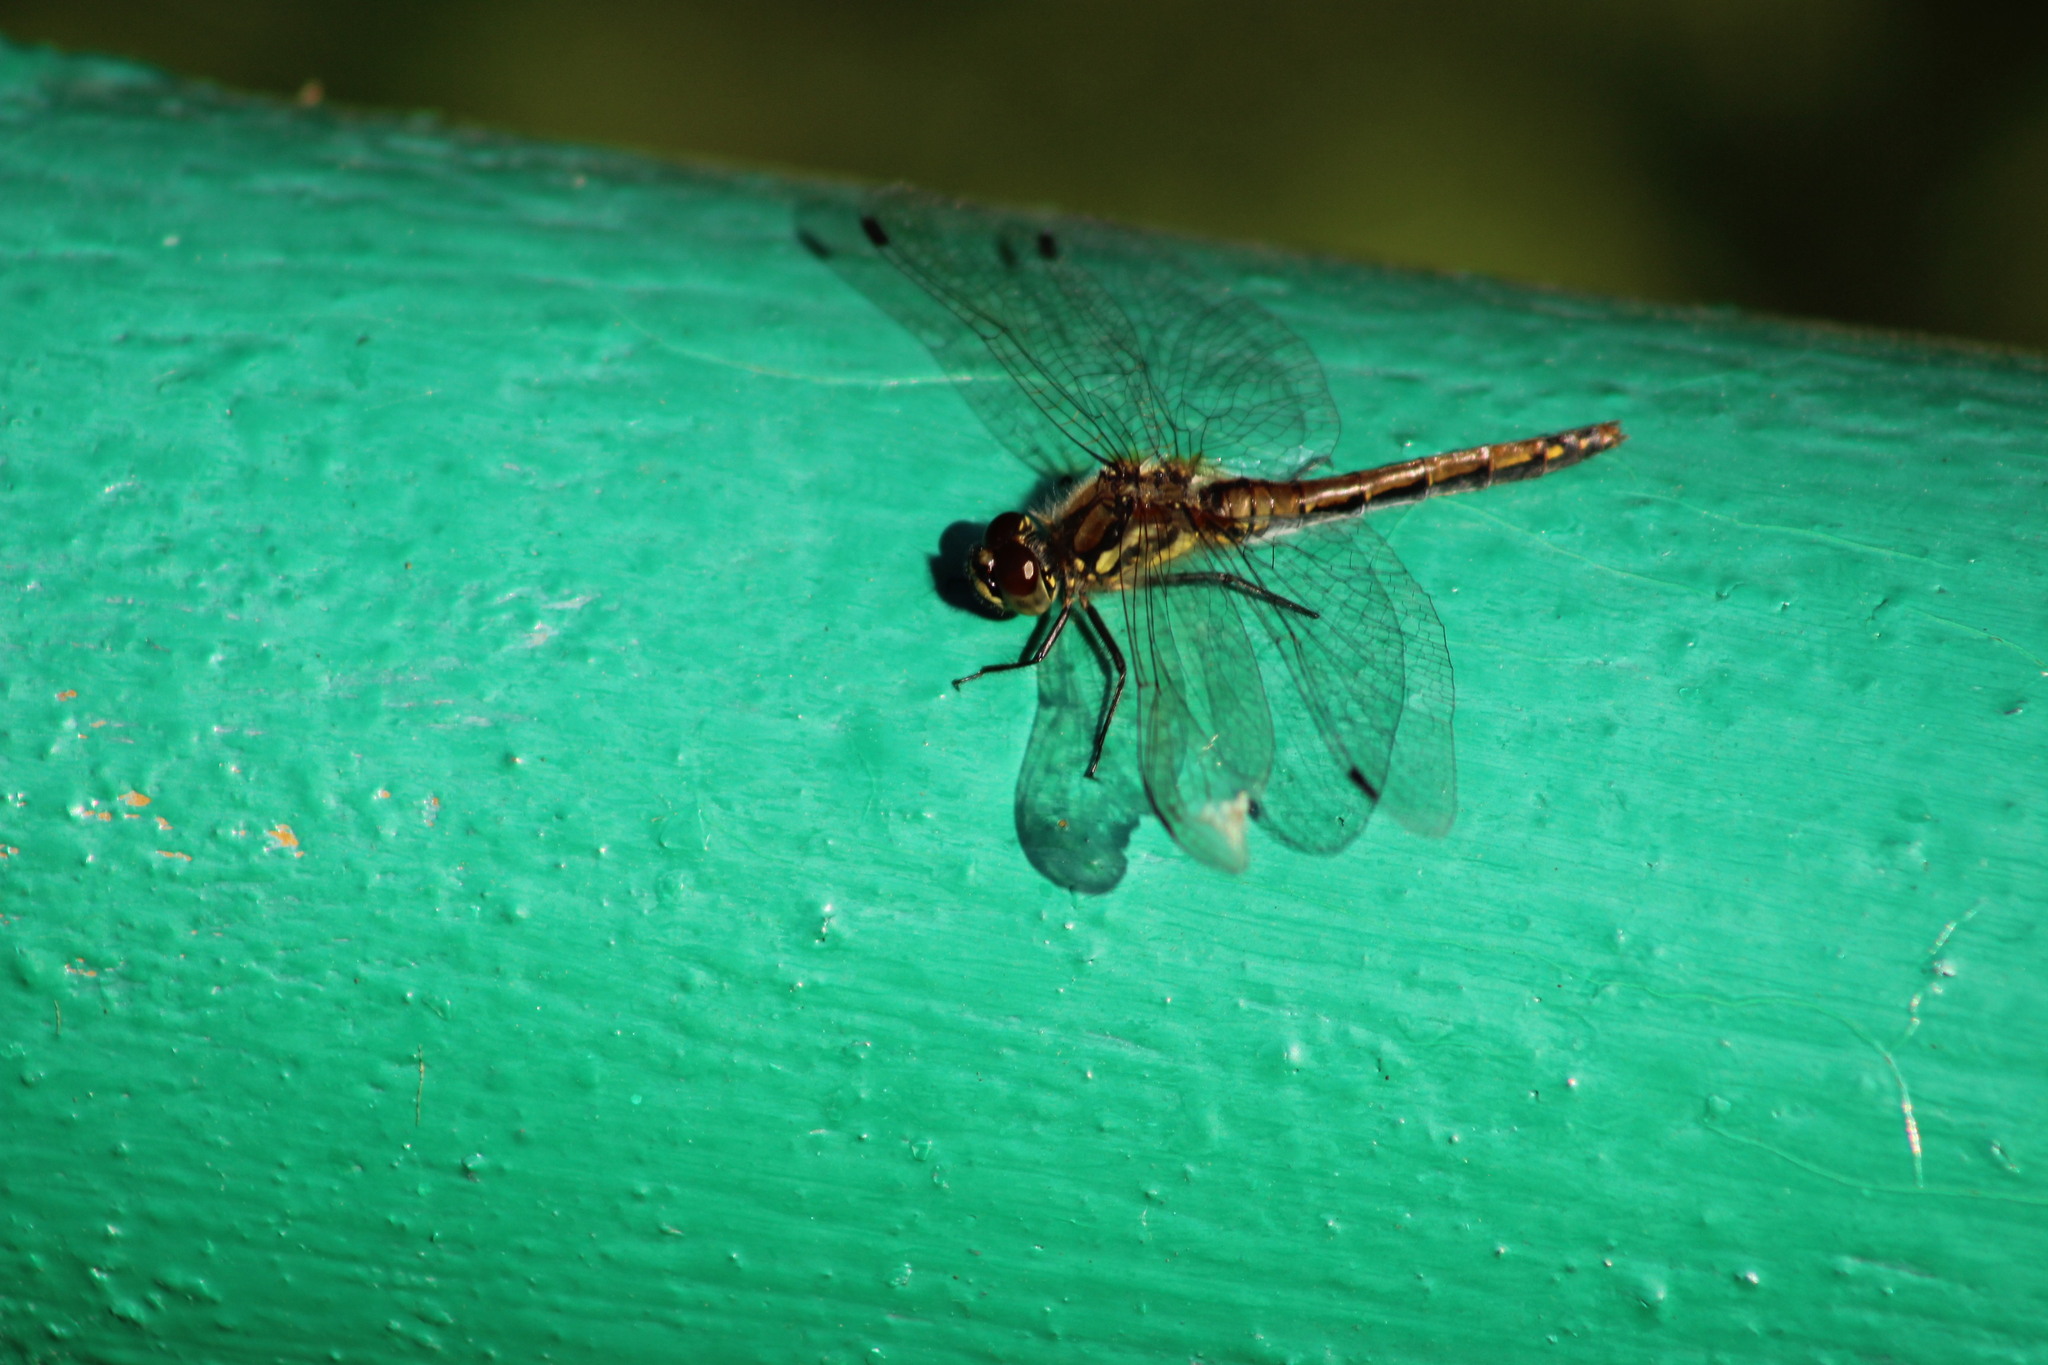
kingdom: Animalia
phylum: Arthropoda
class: Insecta
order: Odonata
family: Libellulidae
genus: Sympetrum
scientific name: Sympetrum danae
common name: Black darter
